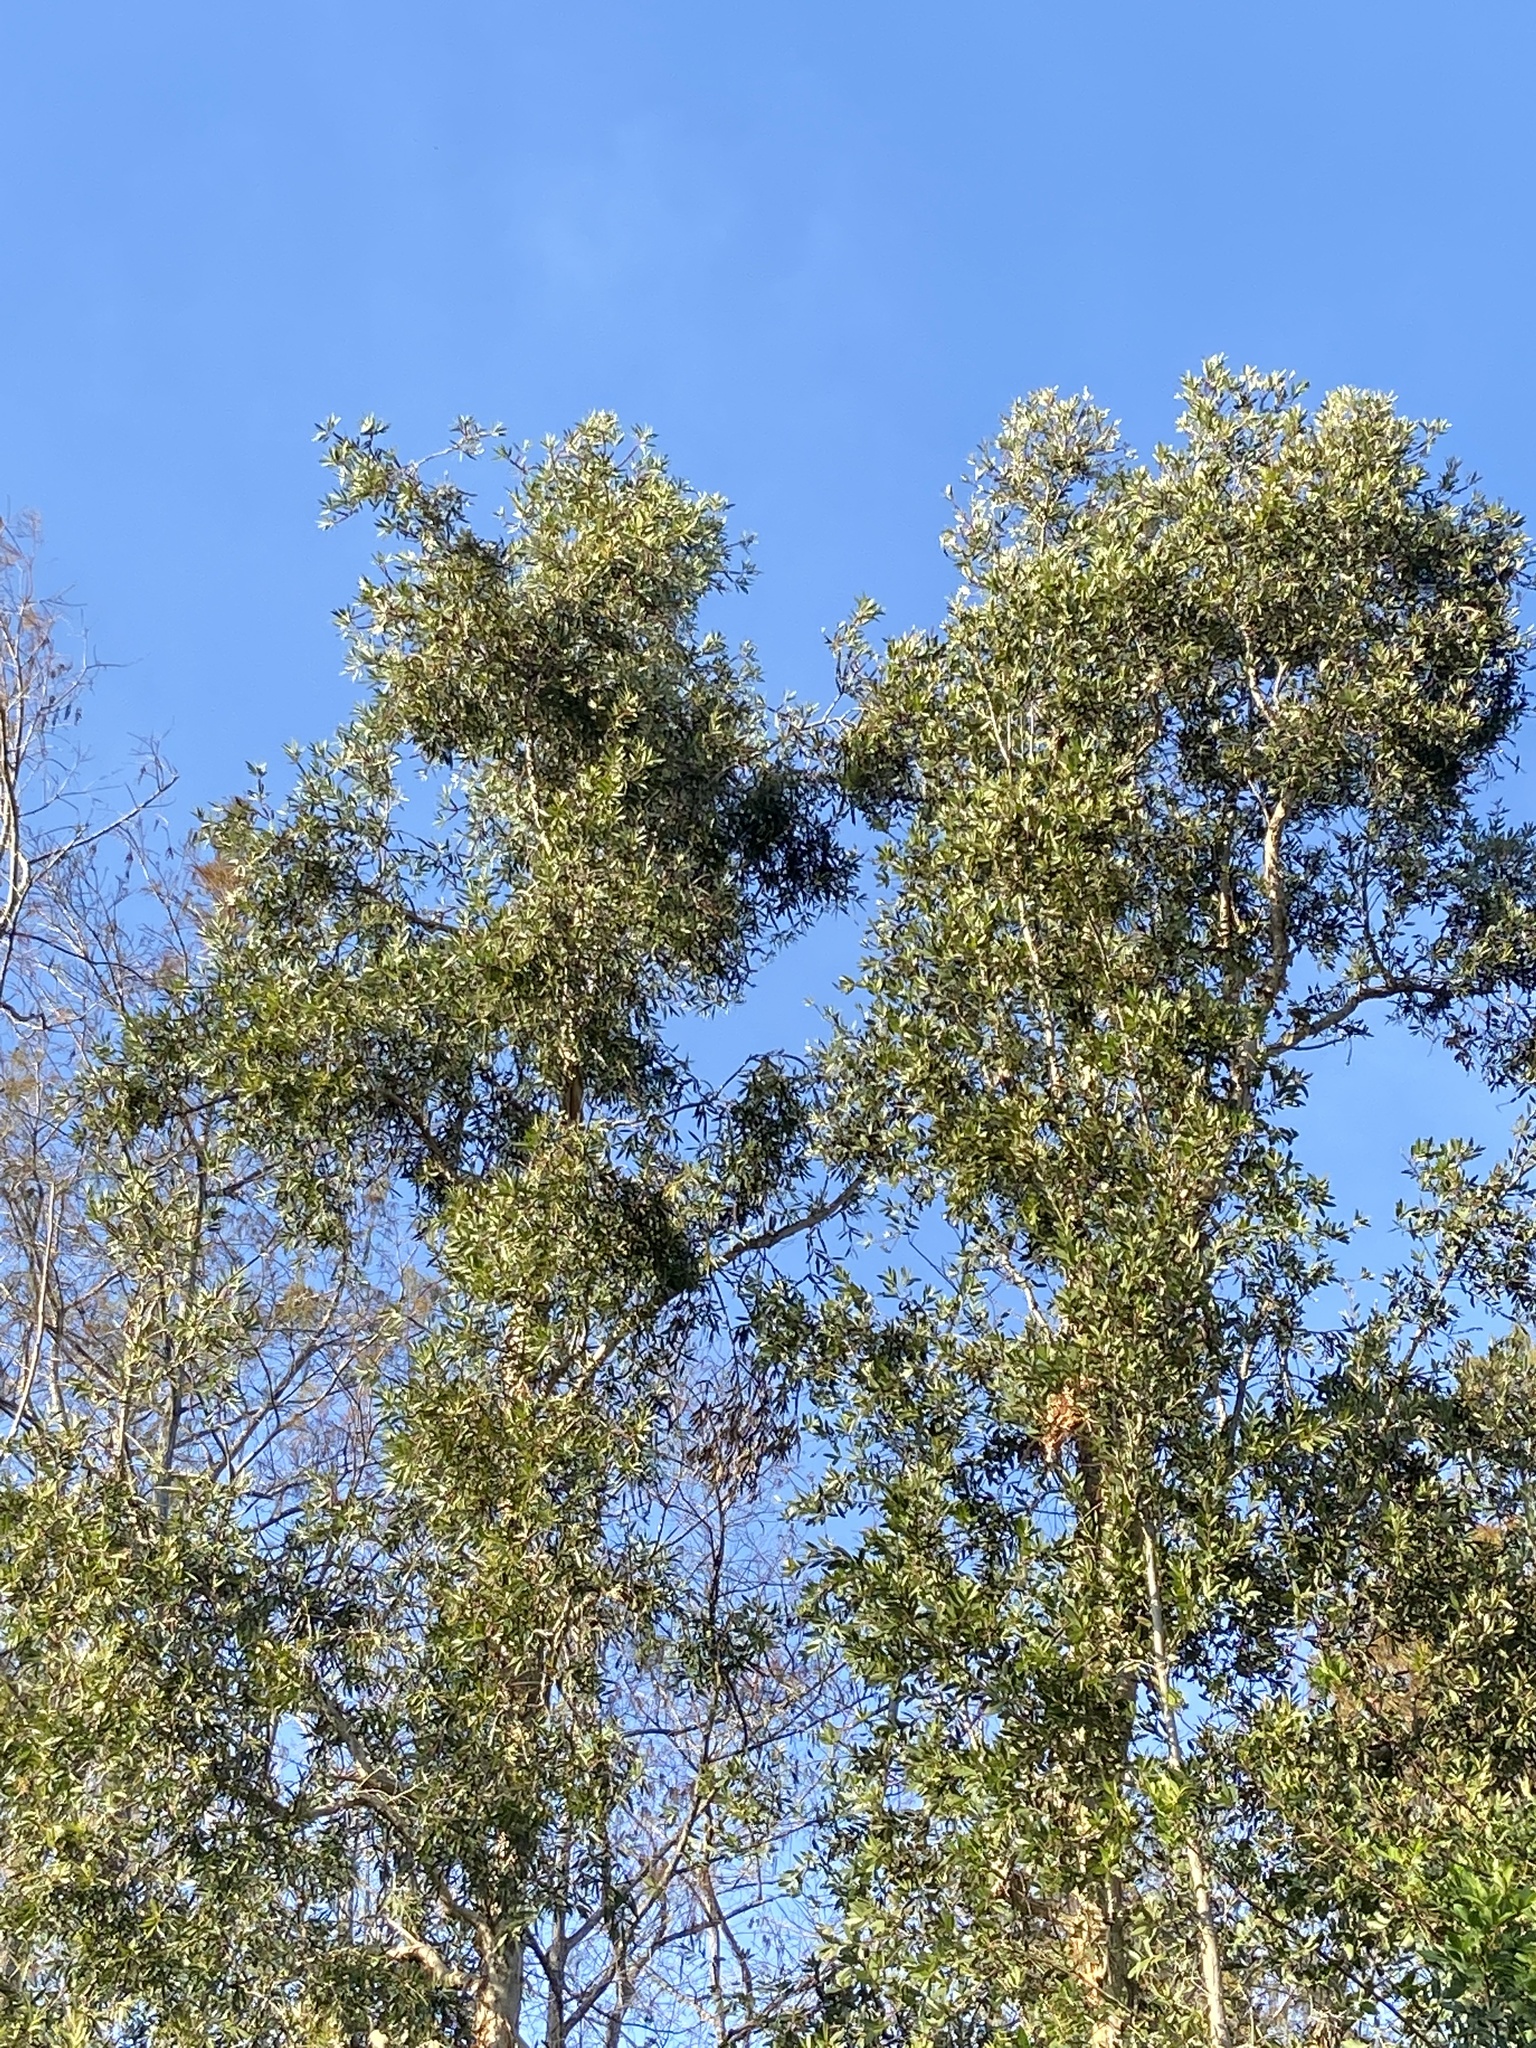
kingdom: Plantae
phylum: Tracheophyta
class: Magnoliopsida
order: Myrtales
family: Myrtaceae
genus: Melaleuca
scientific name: Melaleuca quinquenervia
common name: Punktree
